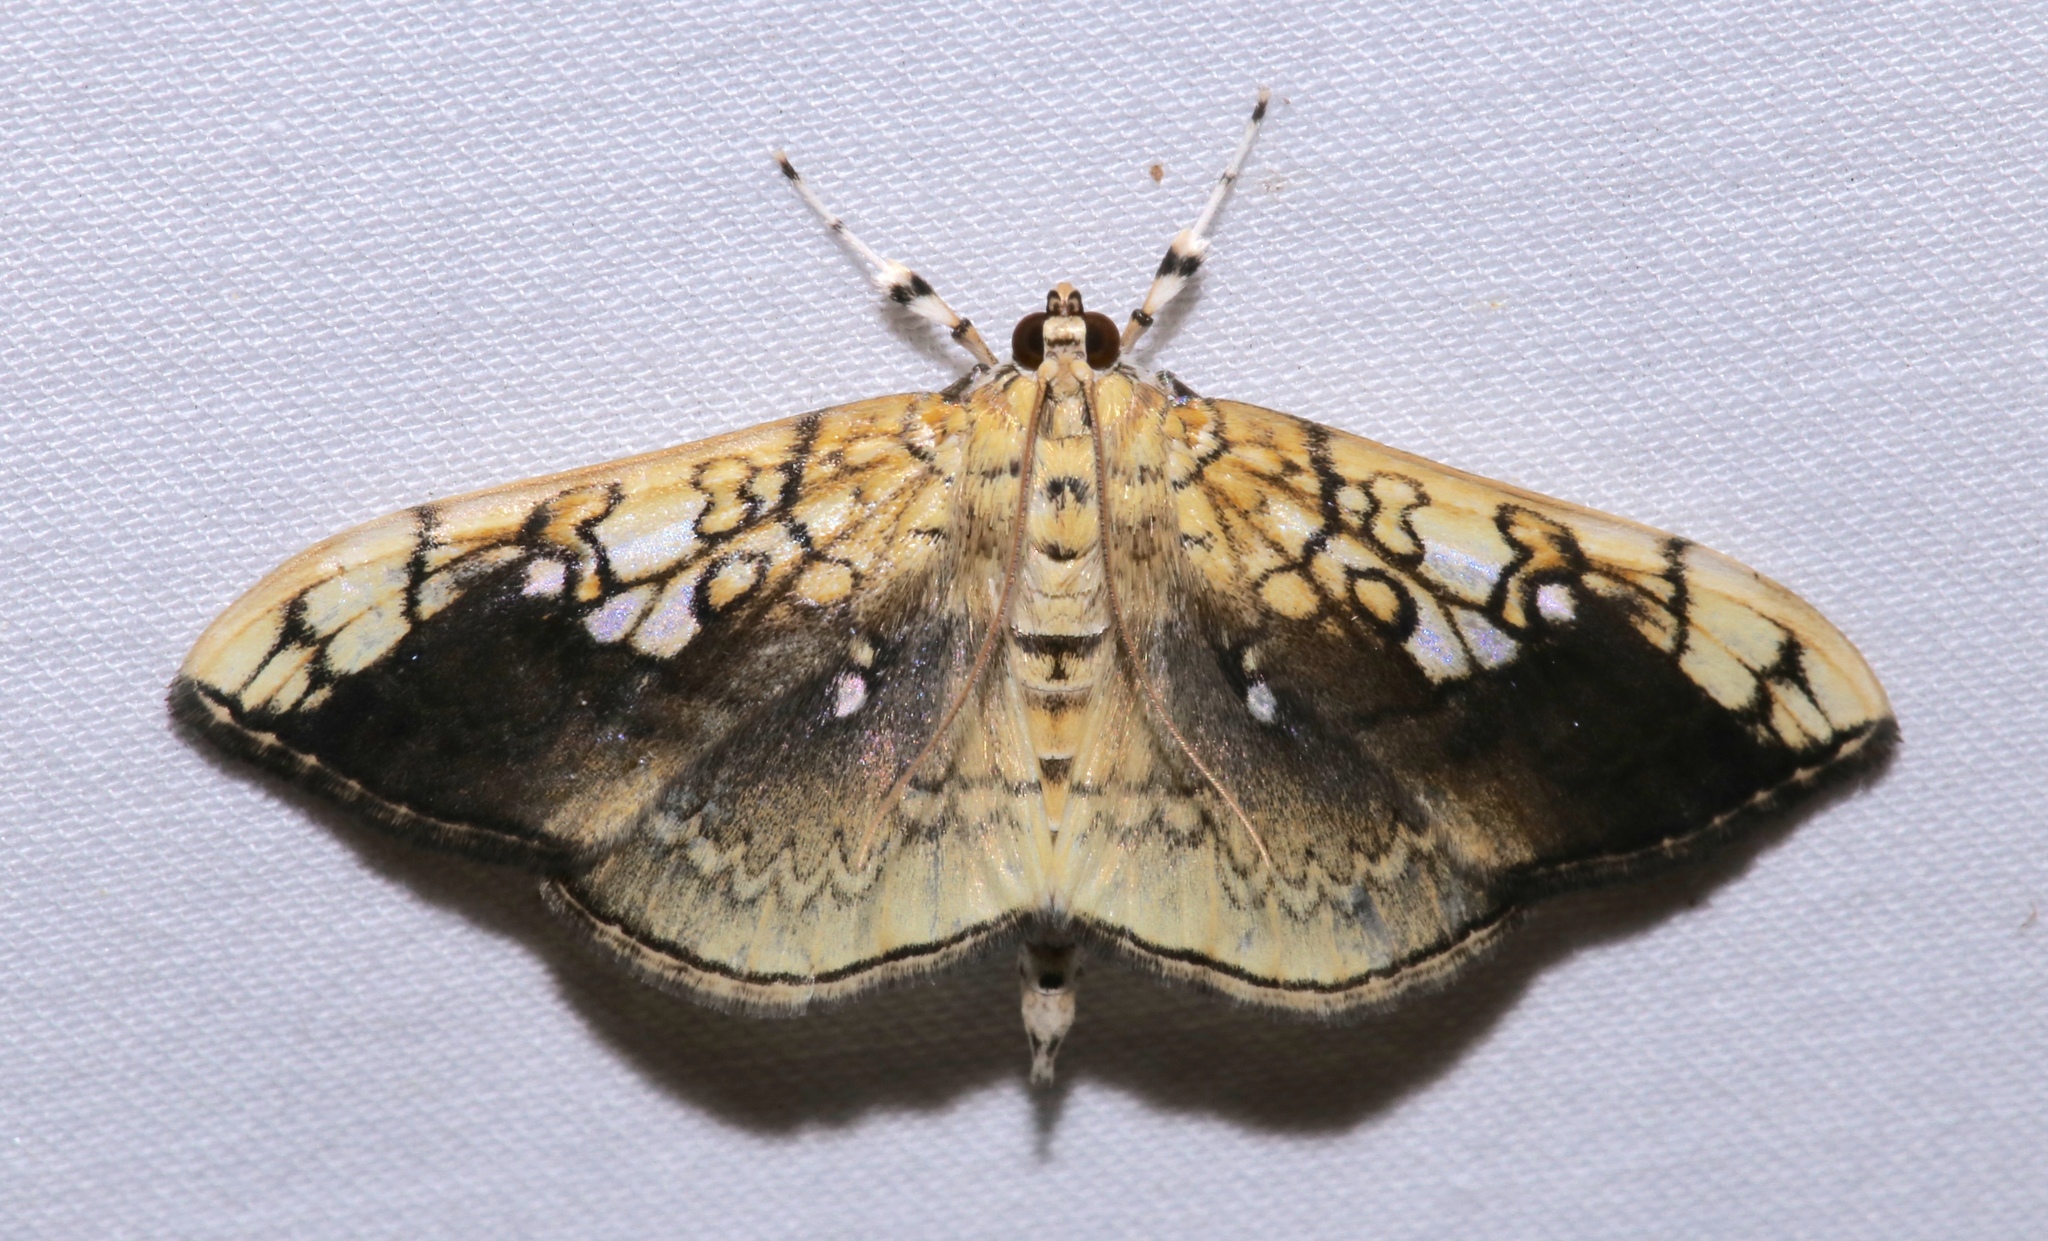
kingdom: Animalia
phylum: Arthropoda
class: Insecta
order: Lepidoptera
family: Crambidae
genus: Pantographa
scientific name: Pantographa limata
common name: Basswood leafroller moth
